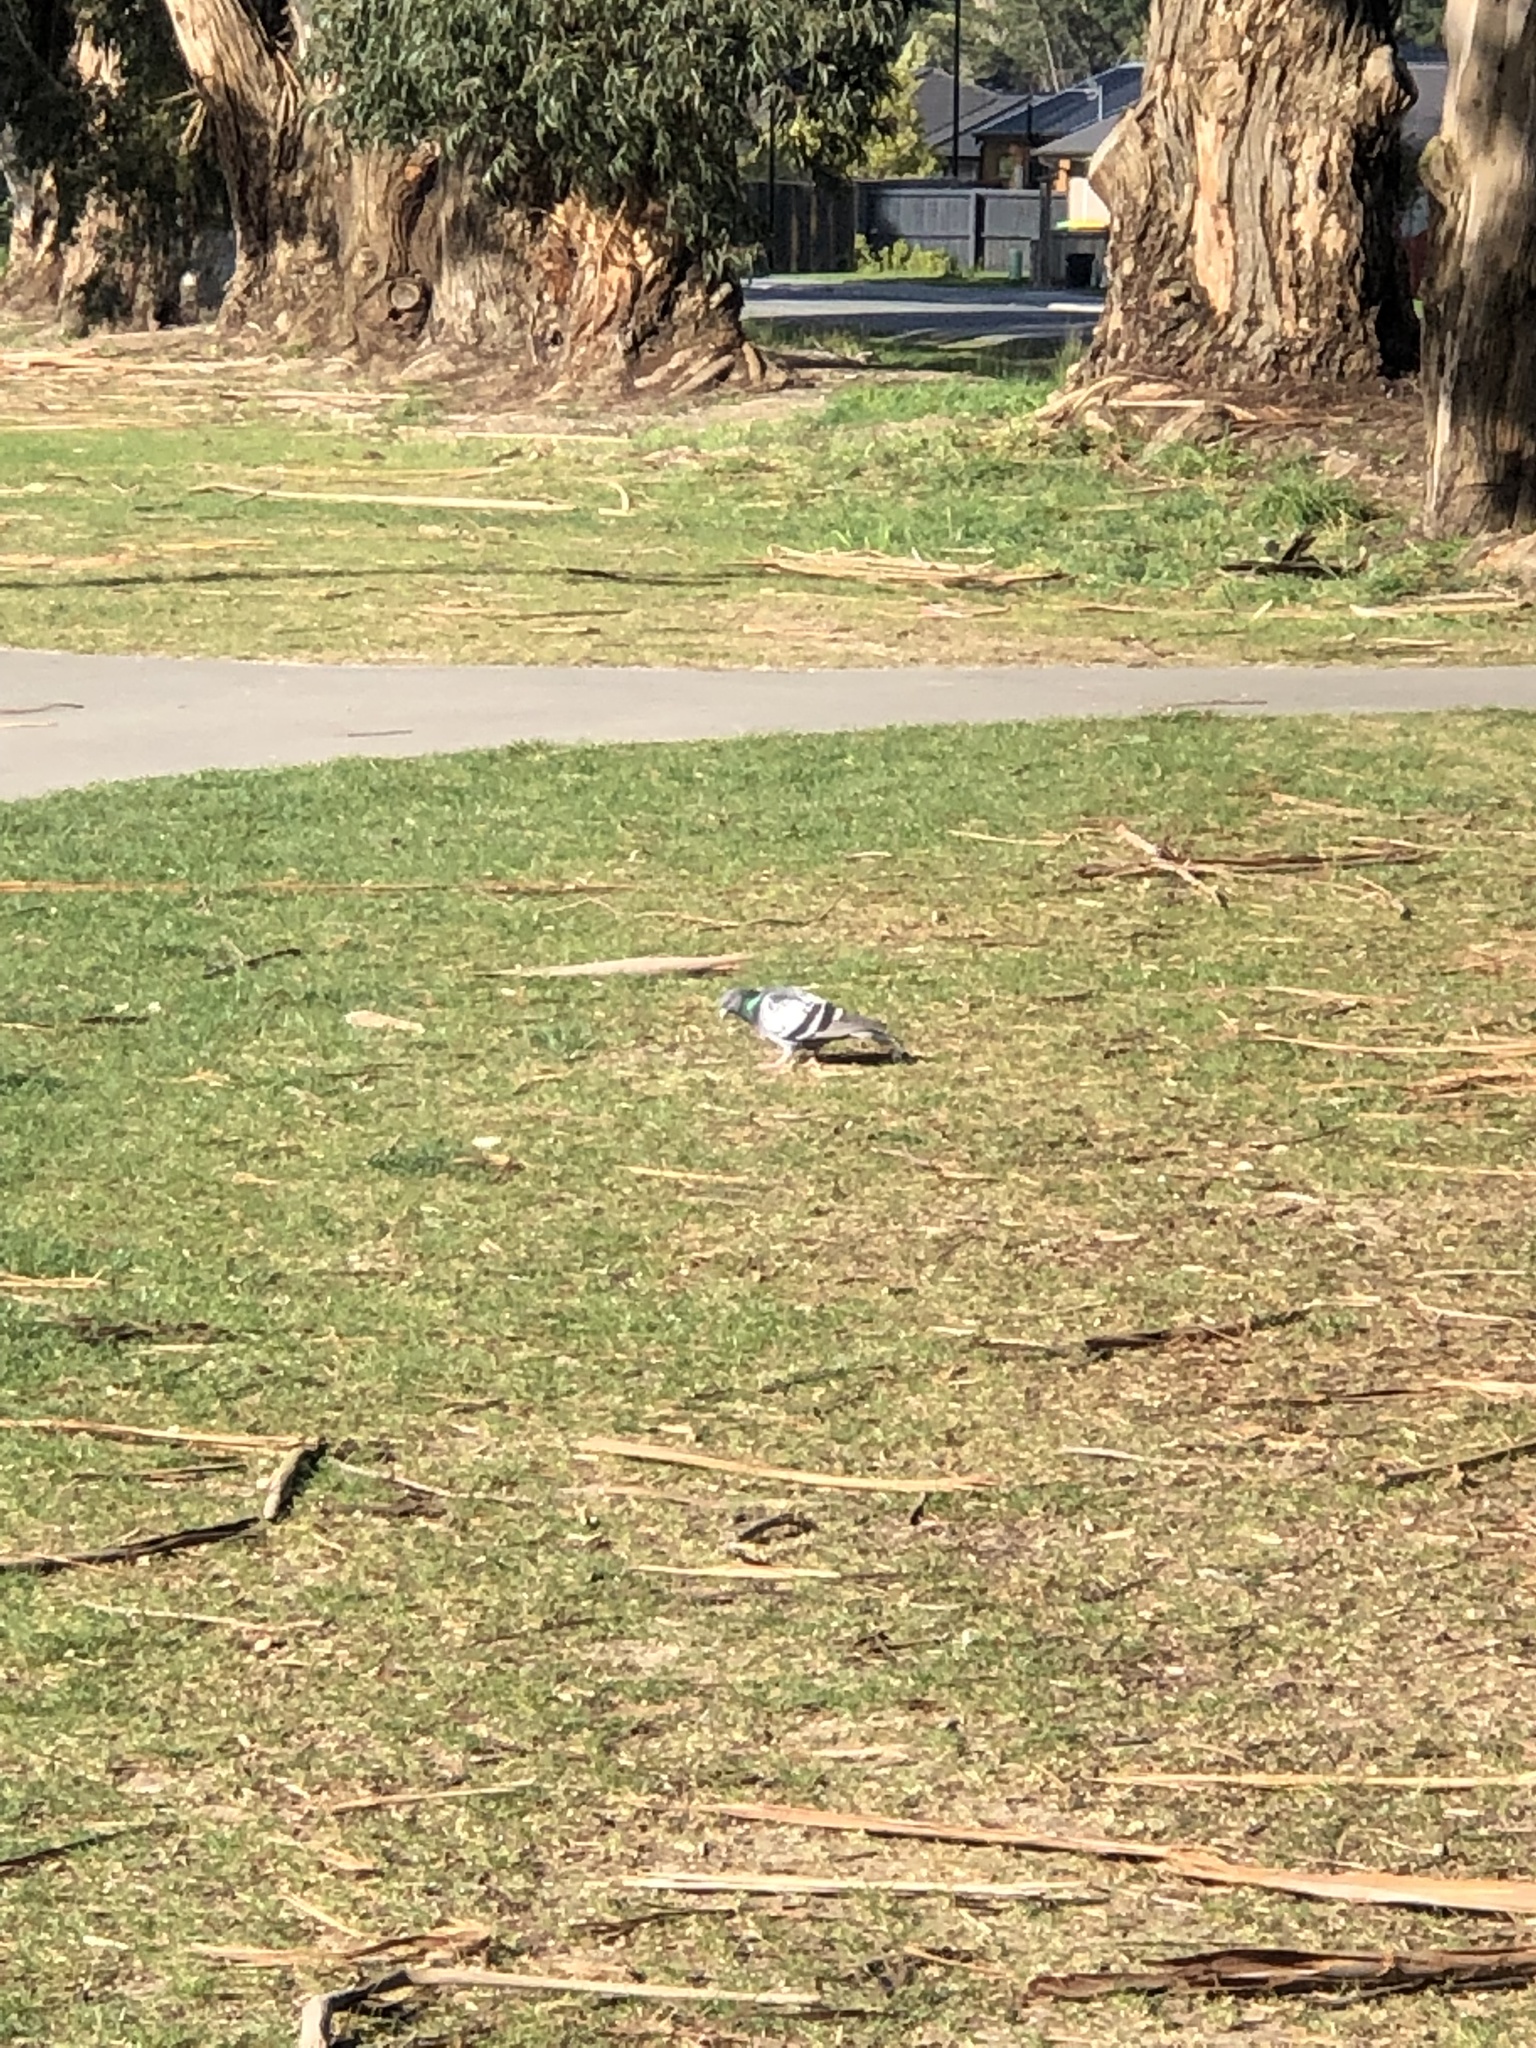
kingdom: Animalia
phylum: Chordata
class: Aves
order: Columbiformes
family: Columbidae
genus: Columba
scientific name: Columba livia
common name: Rock pigeon
